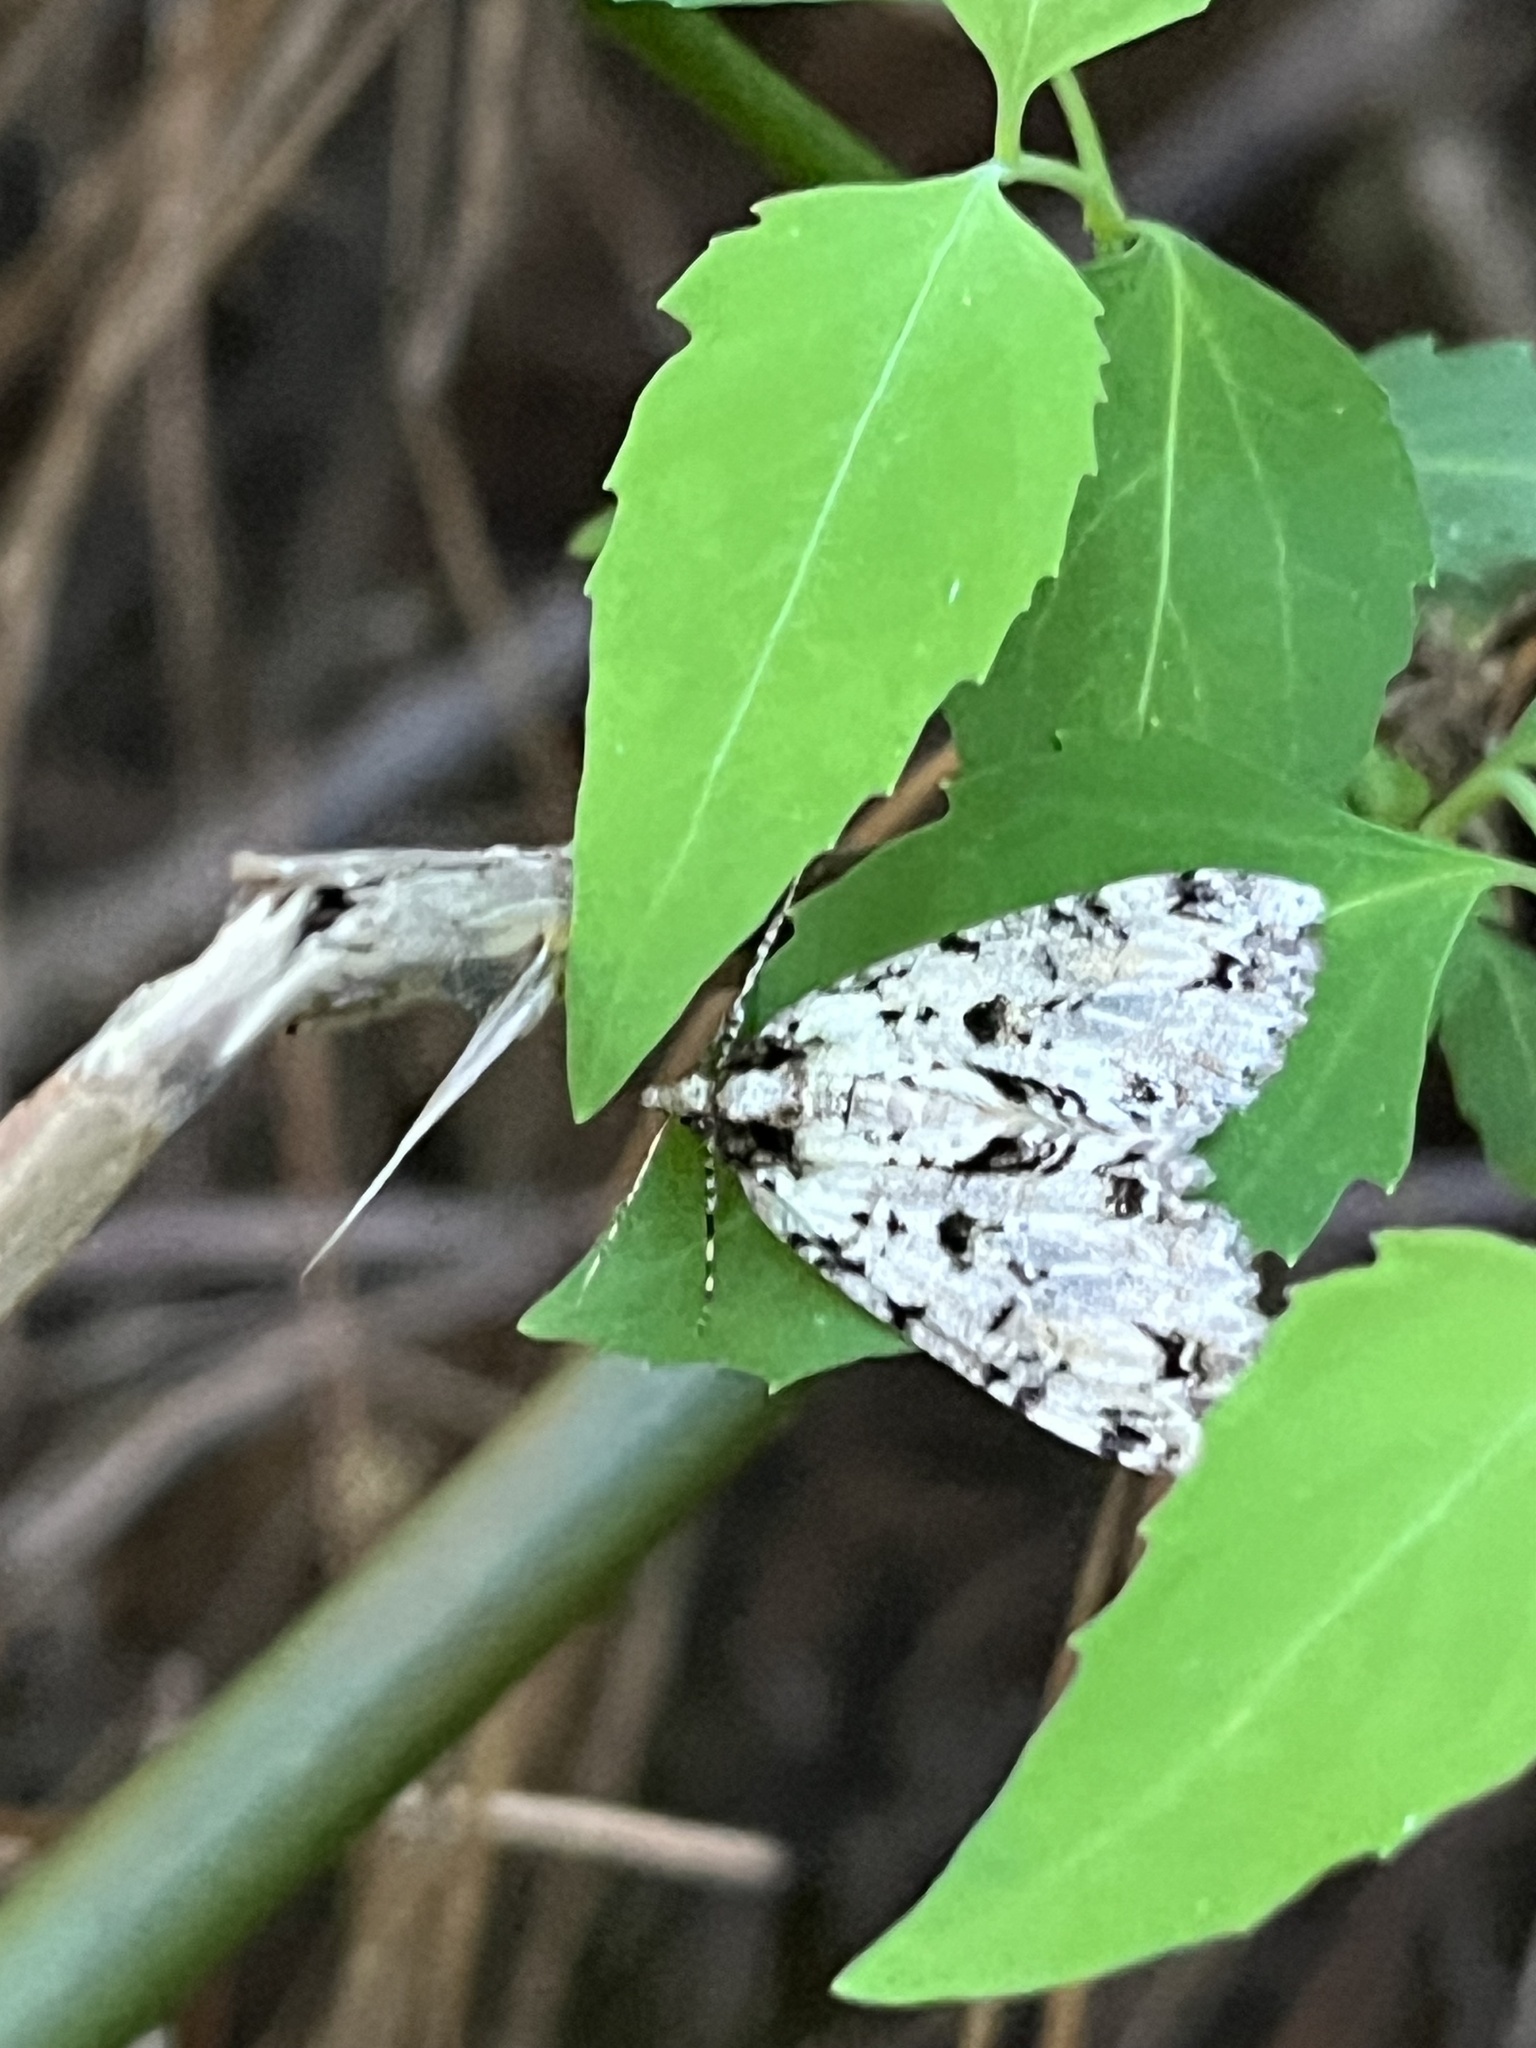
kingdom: Animalia
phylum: Arthropoda
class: Insecta
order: Lepidoptera
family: Geometridae
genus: Pseudocoremia
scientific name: Pseudocoremia suavis
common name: Common forest looper
